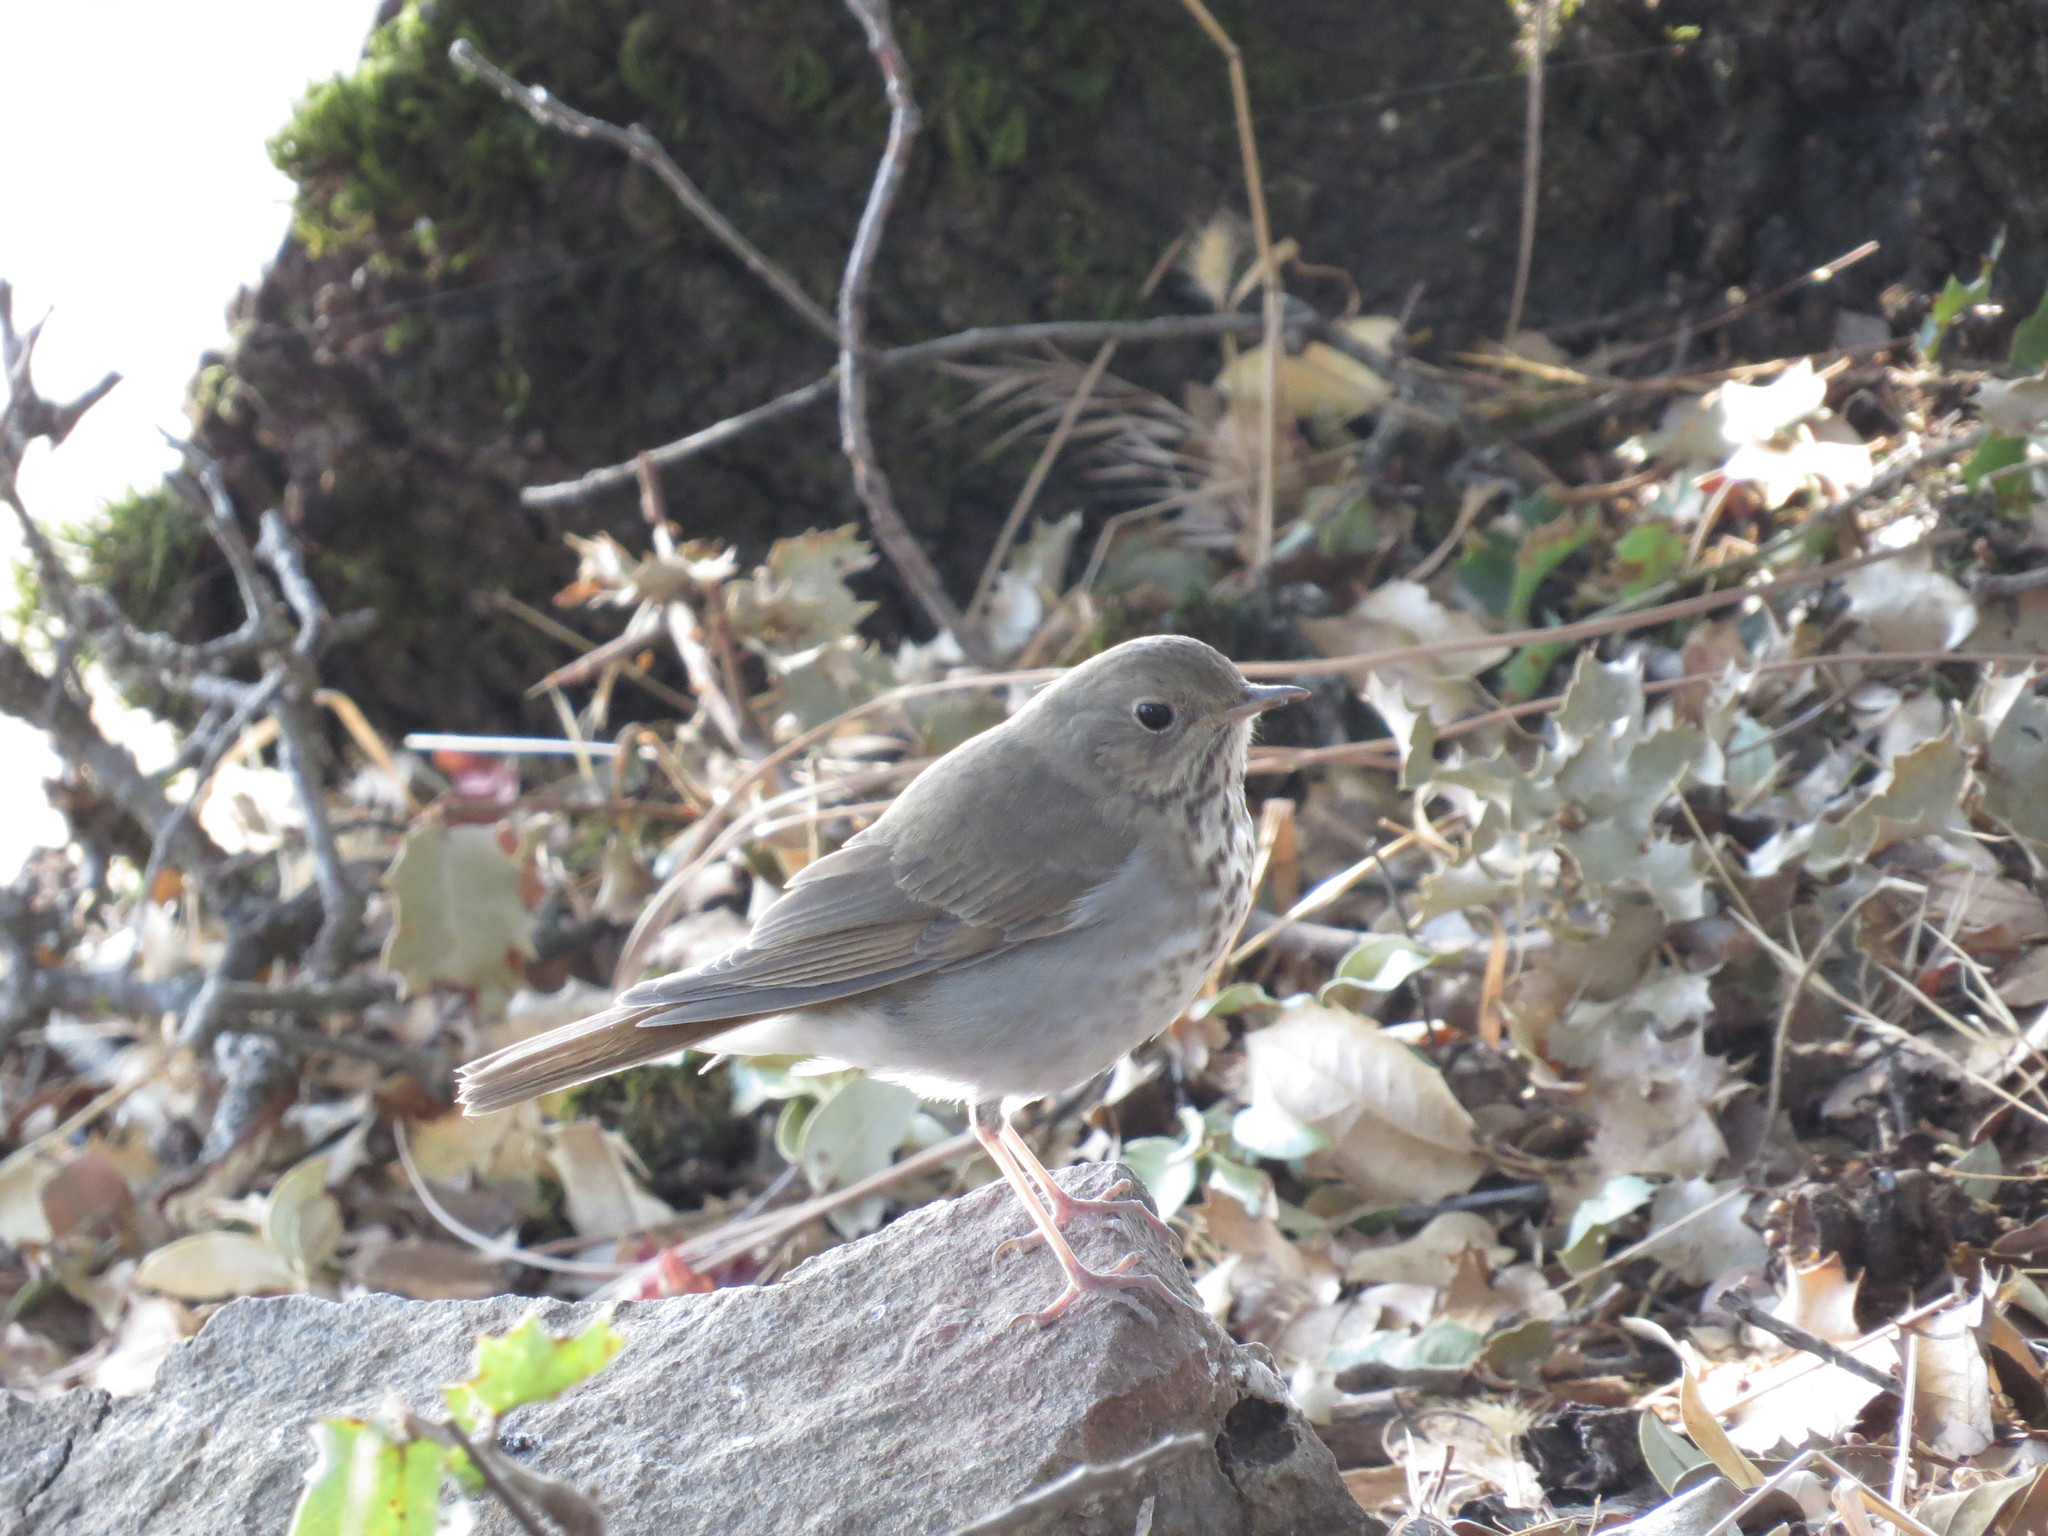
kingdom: Animalia
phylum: Chordata
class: Aves
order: Passeriformes
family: Turdidae
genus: Catharus
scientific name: Catharus guttatus
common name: Hermit thrush
